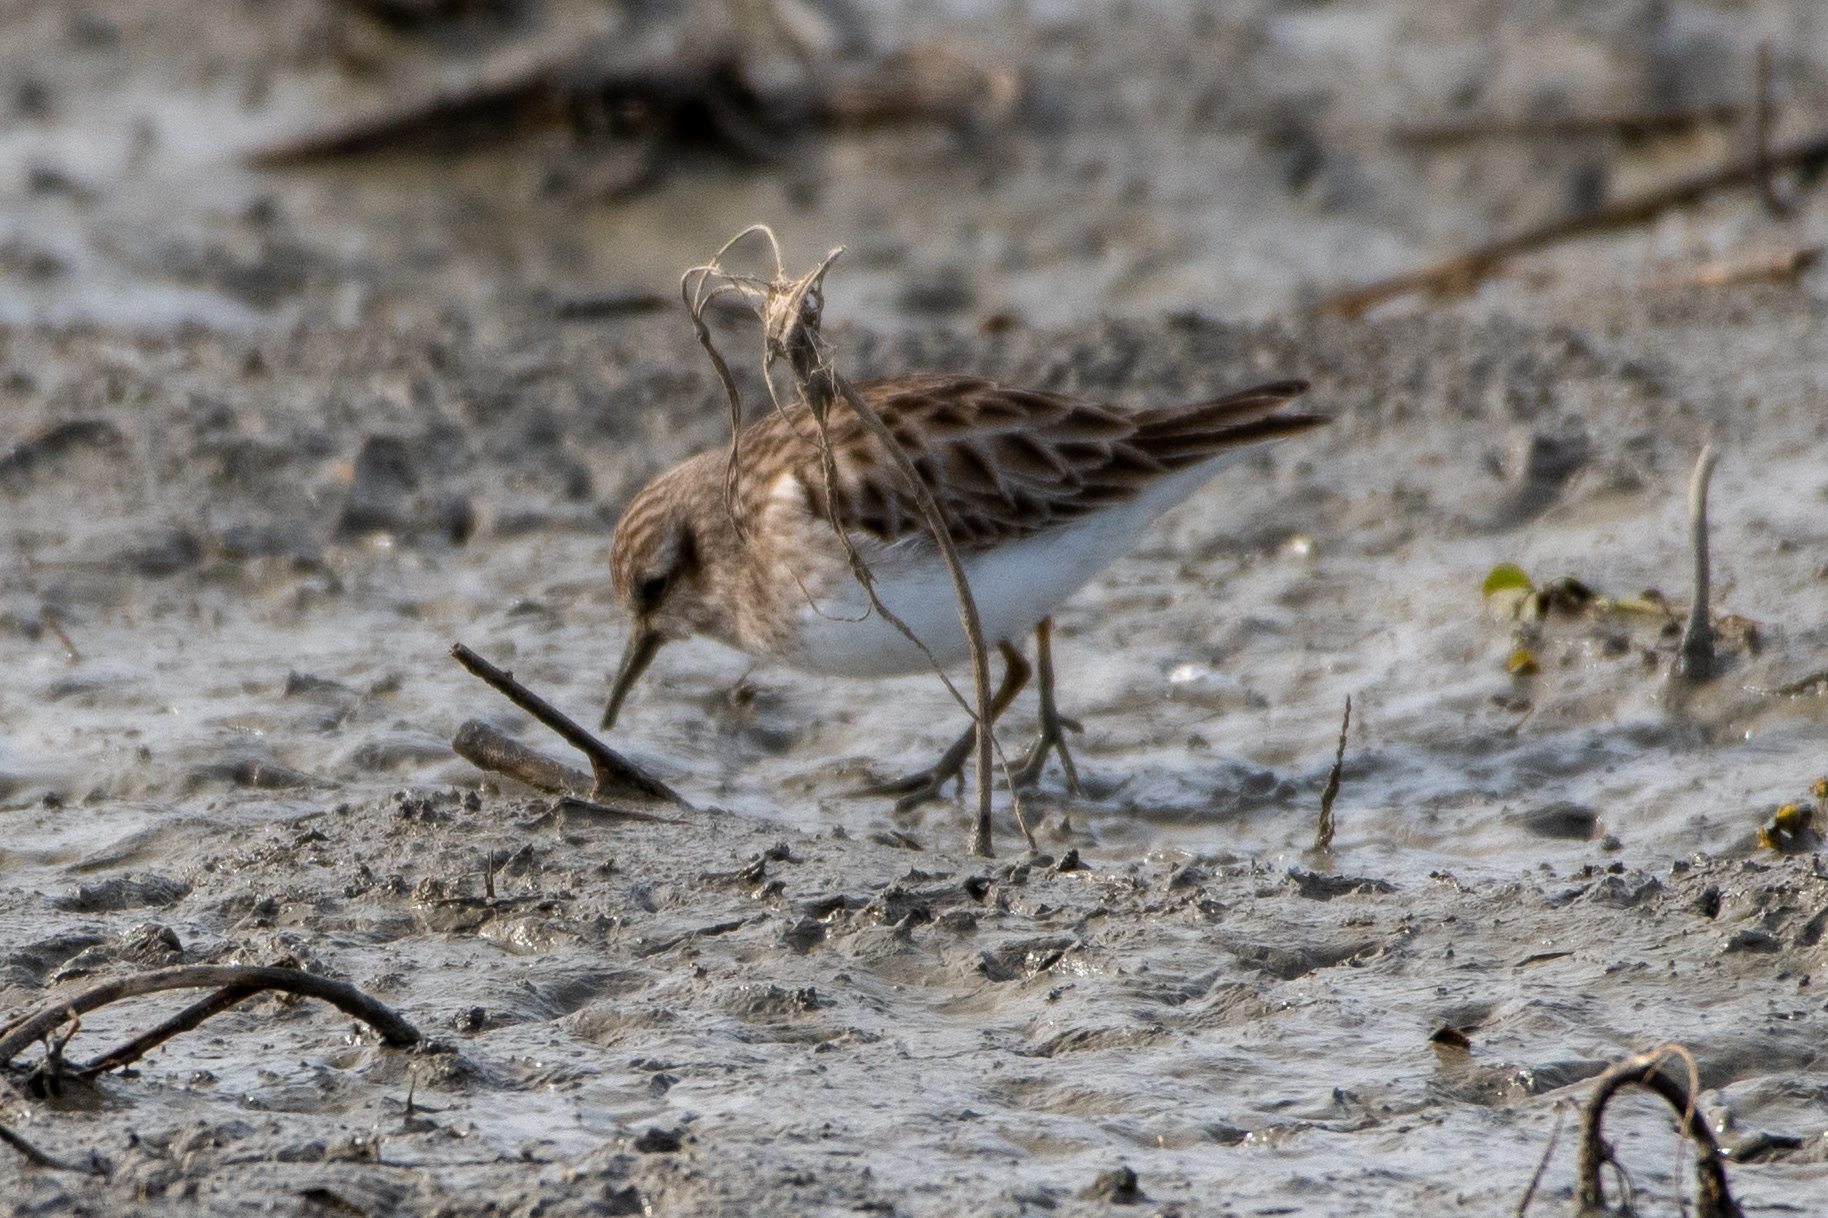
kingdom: Animalia
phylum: Chordata
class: Aves
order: Charadriiformes
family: Scolopacidae
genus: Calidris
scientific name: Calidris minutilla
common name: Least sandpiper
